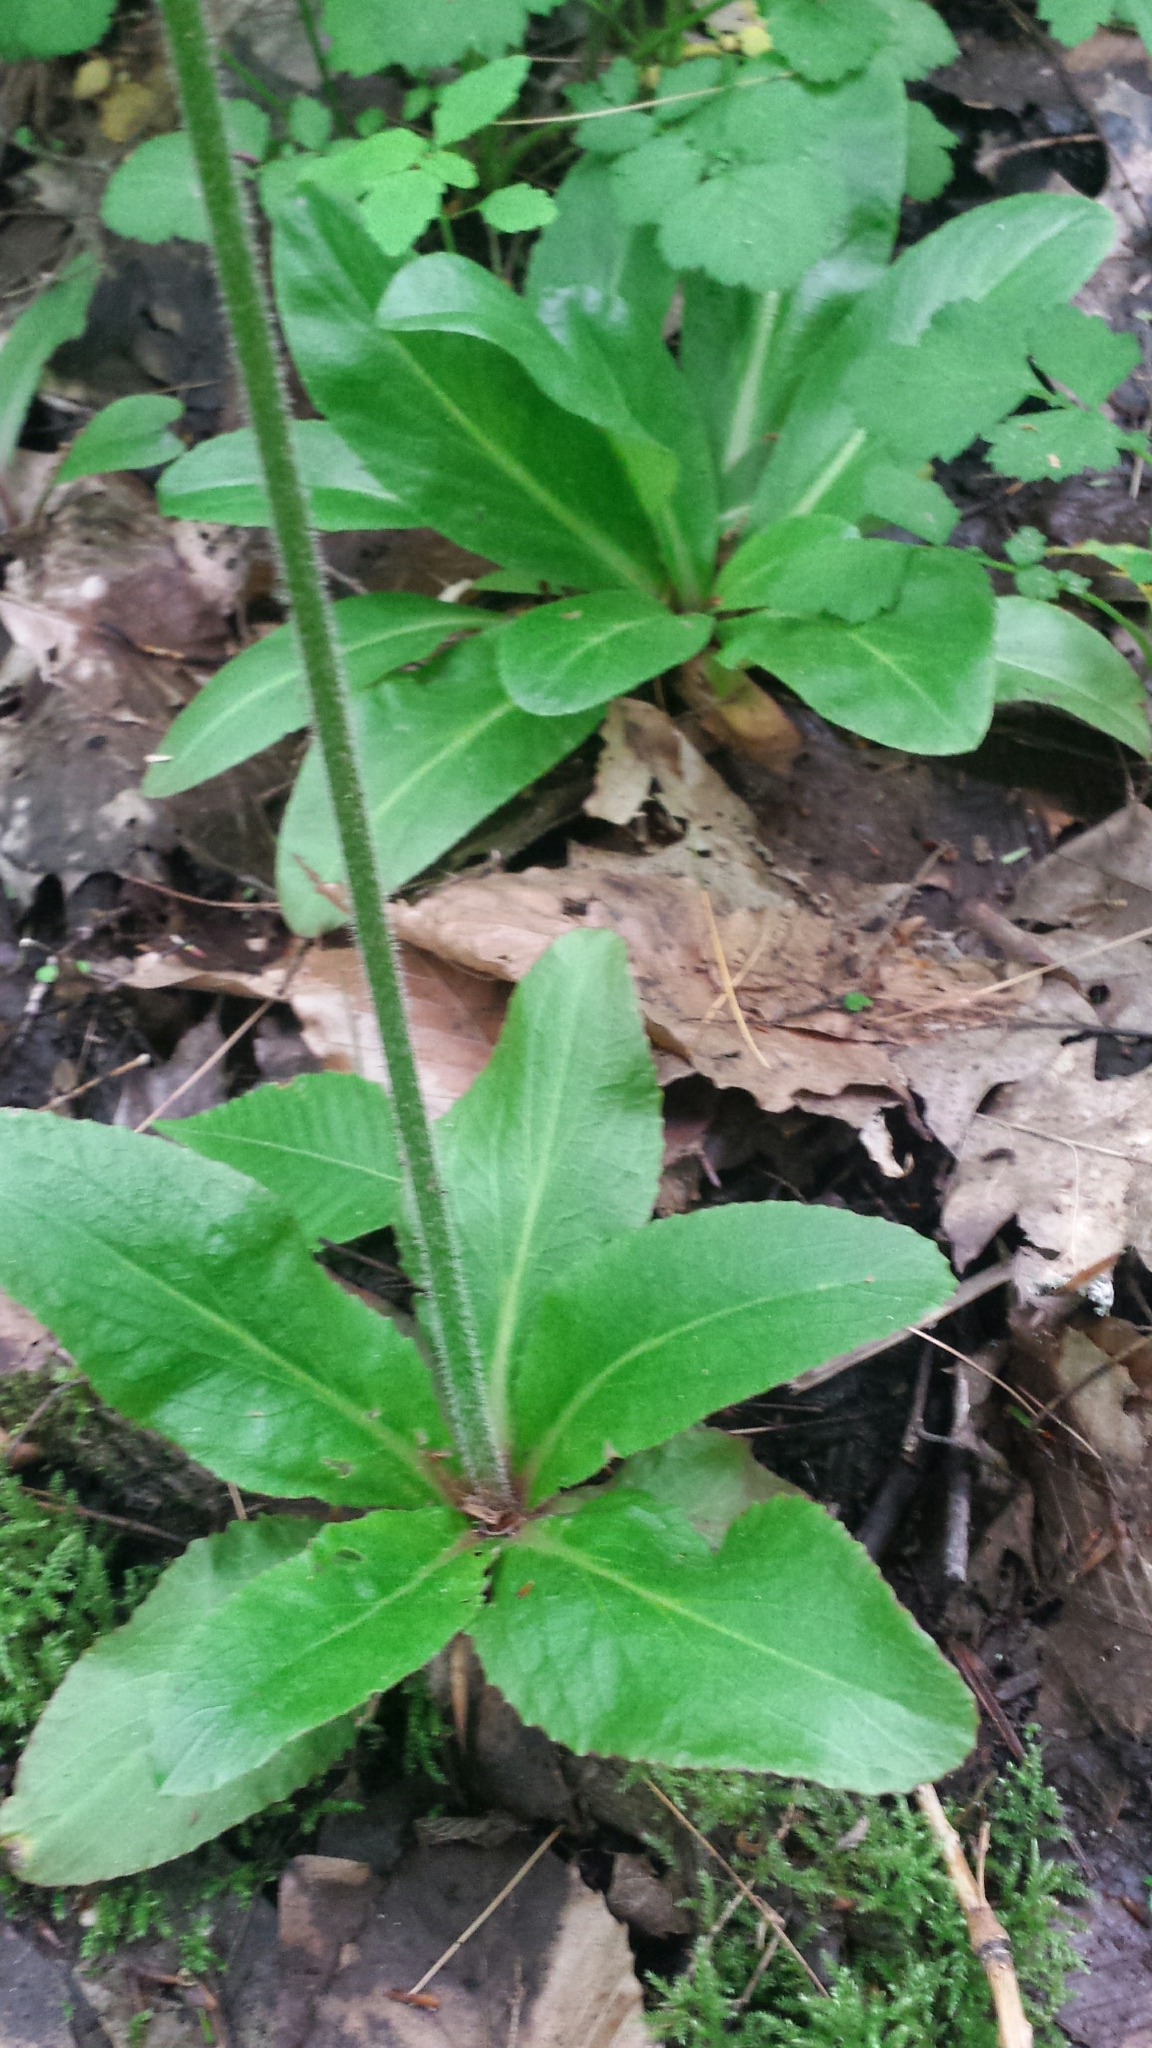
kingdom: Plantae
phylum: Tracheophyta
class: Magnoliopsida
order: Saxifragales
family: Saxifragaceae
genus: Micranthes
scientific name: Micranthes pensylvanica
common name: Marsh saxifrage
